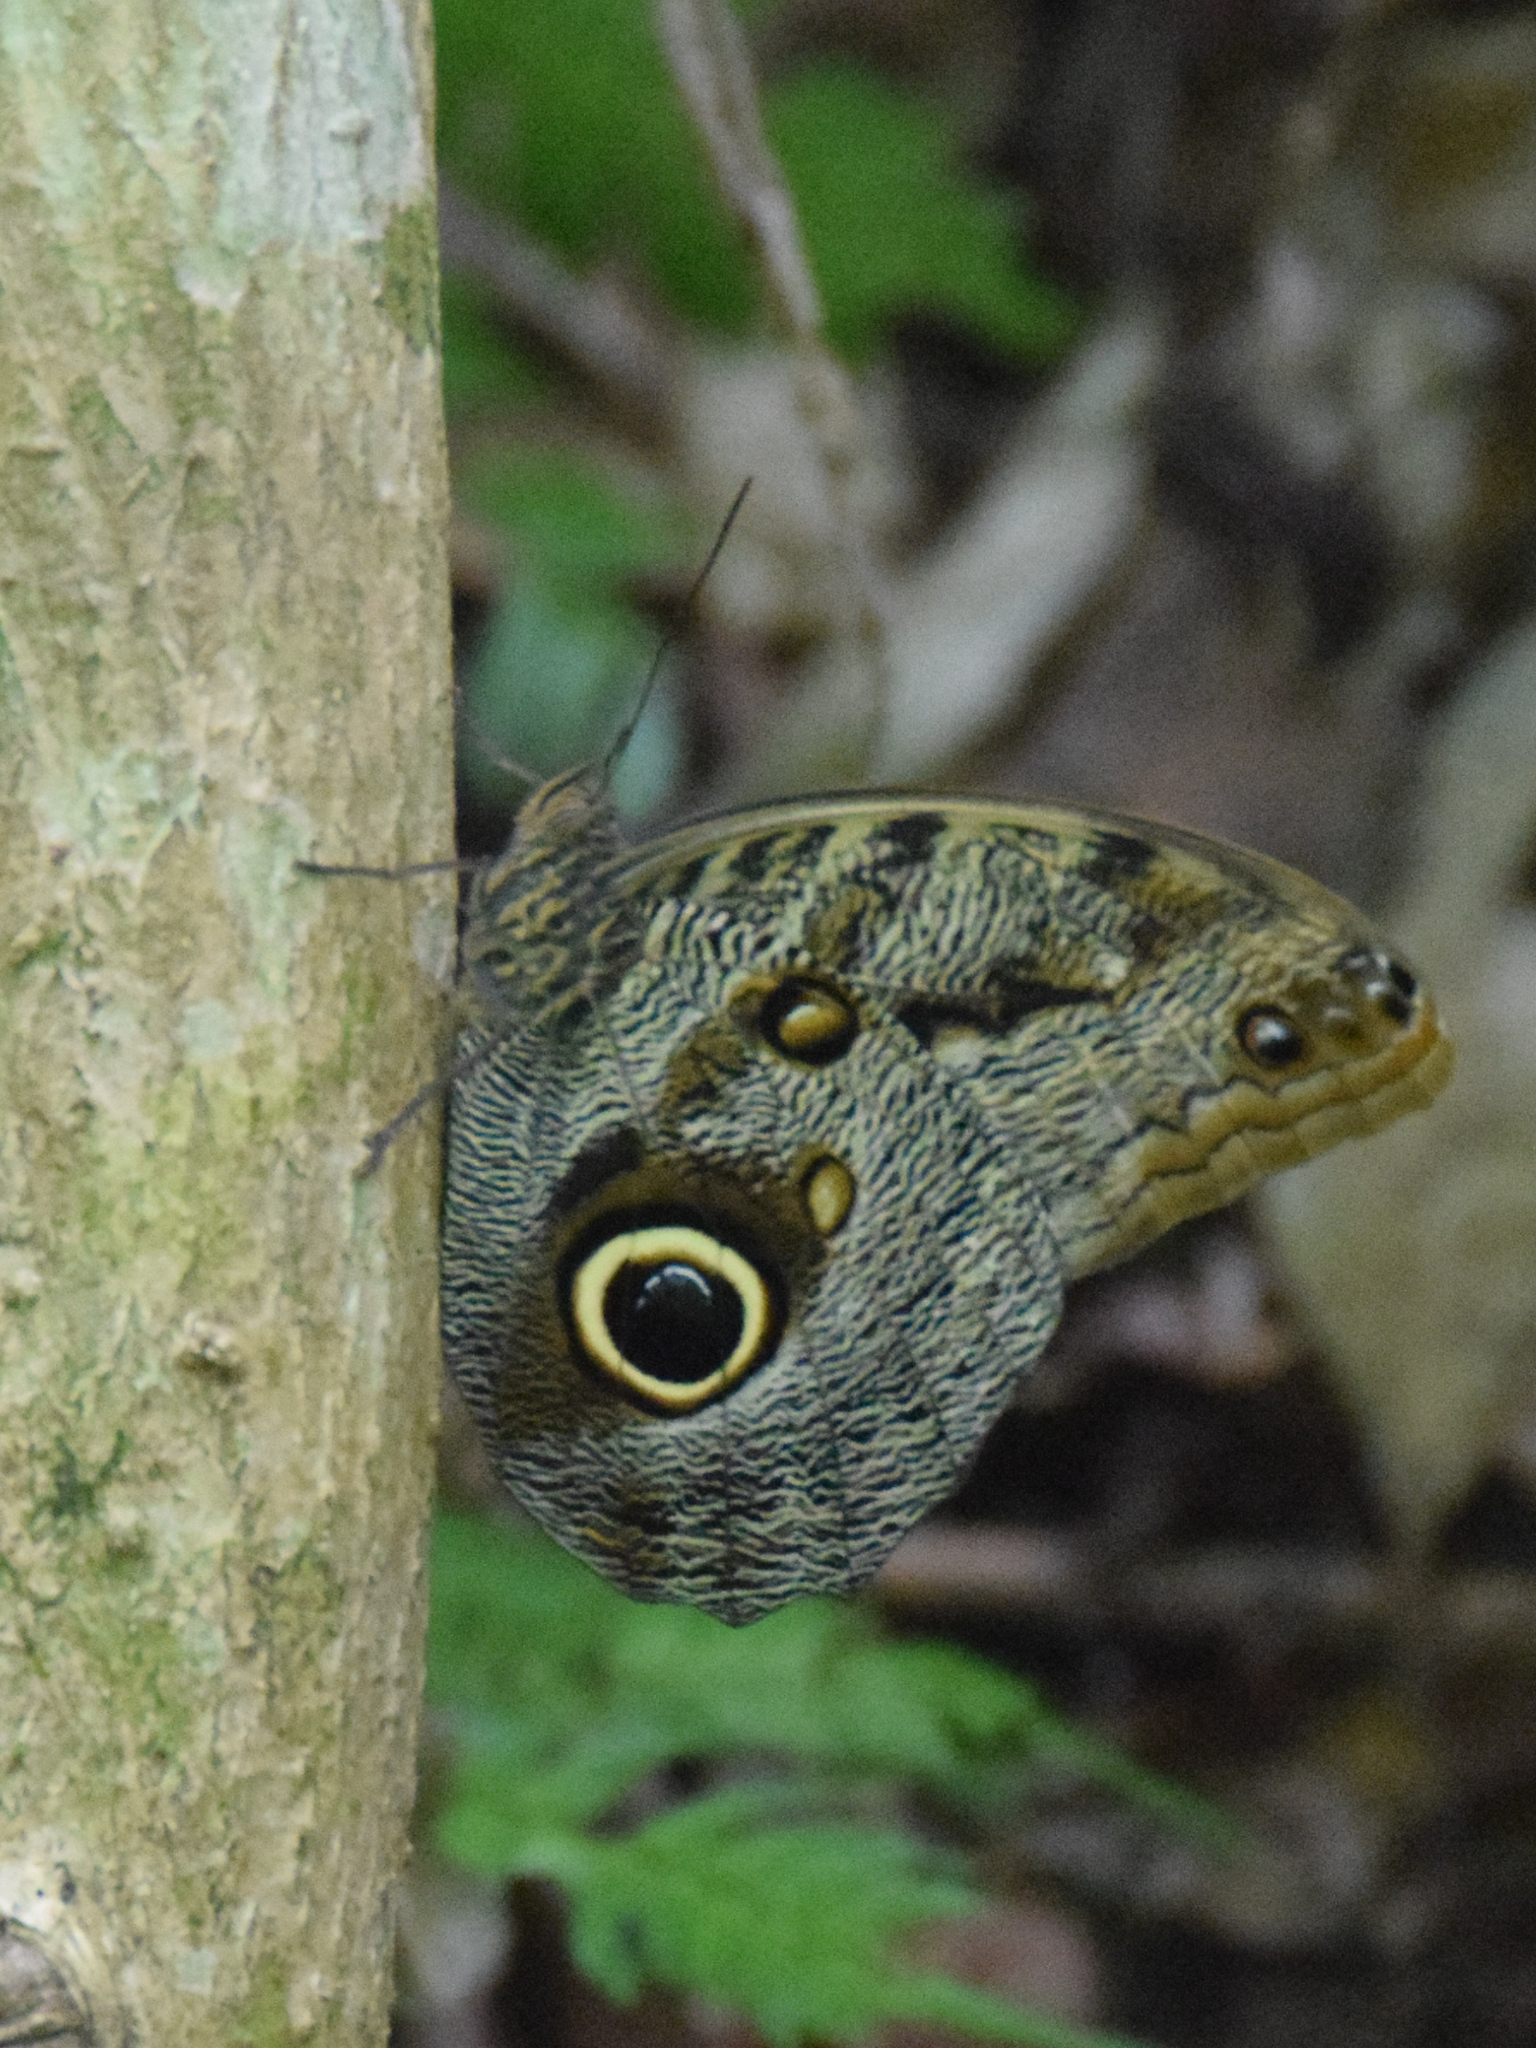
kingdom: Animalia
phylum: Arthropoda
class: Insecta
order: Lepidoptera
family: Nymphalidae
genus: Caligo
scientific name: Caligo brasiliensis
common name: Dark owl-butterfly
